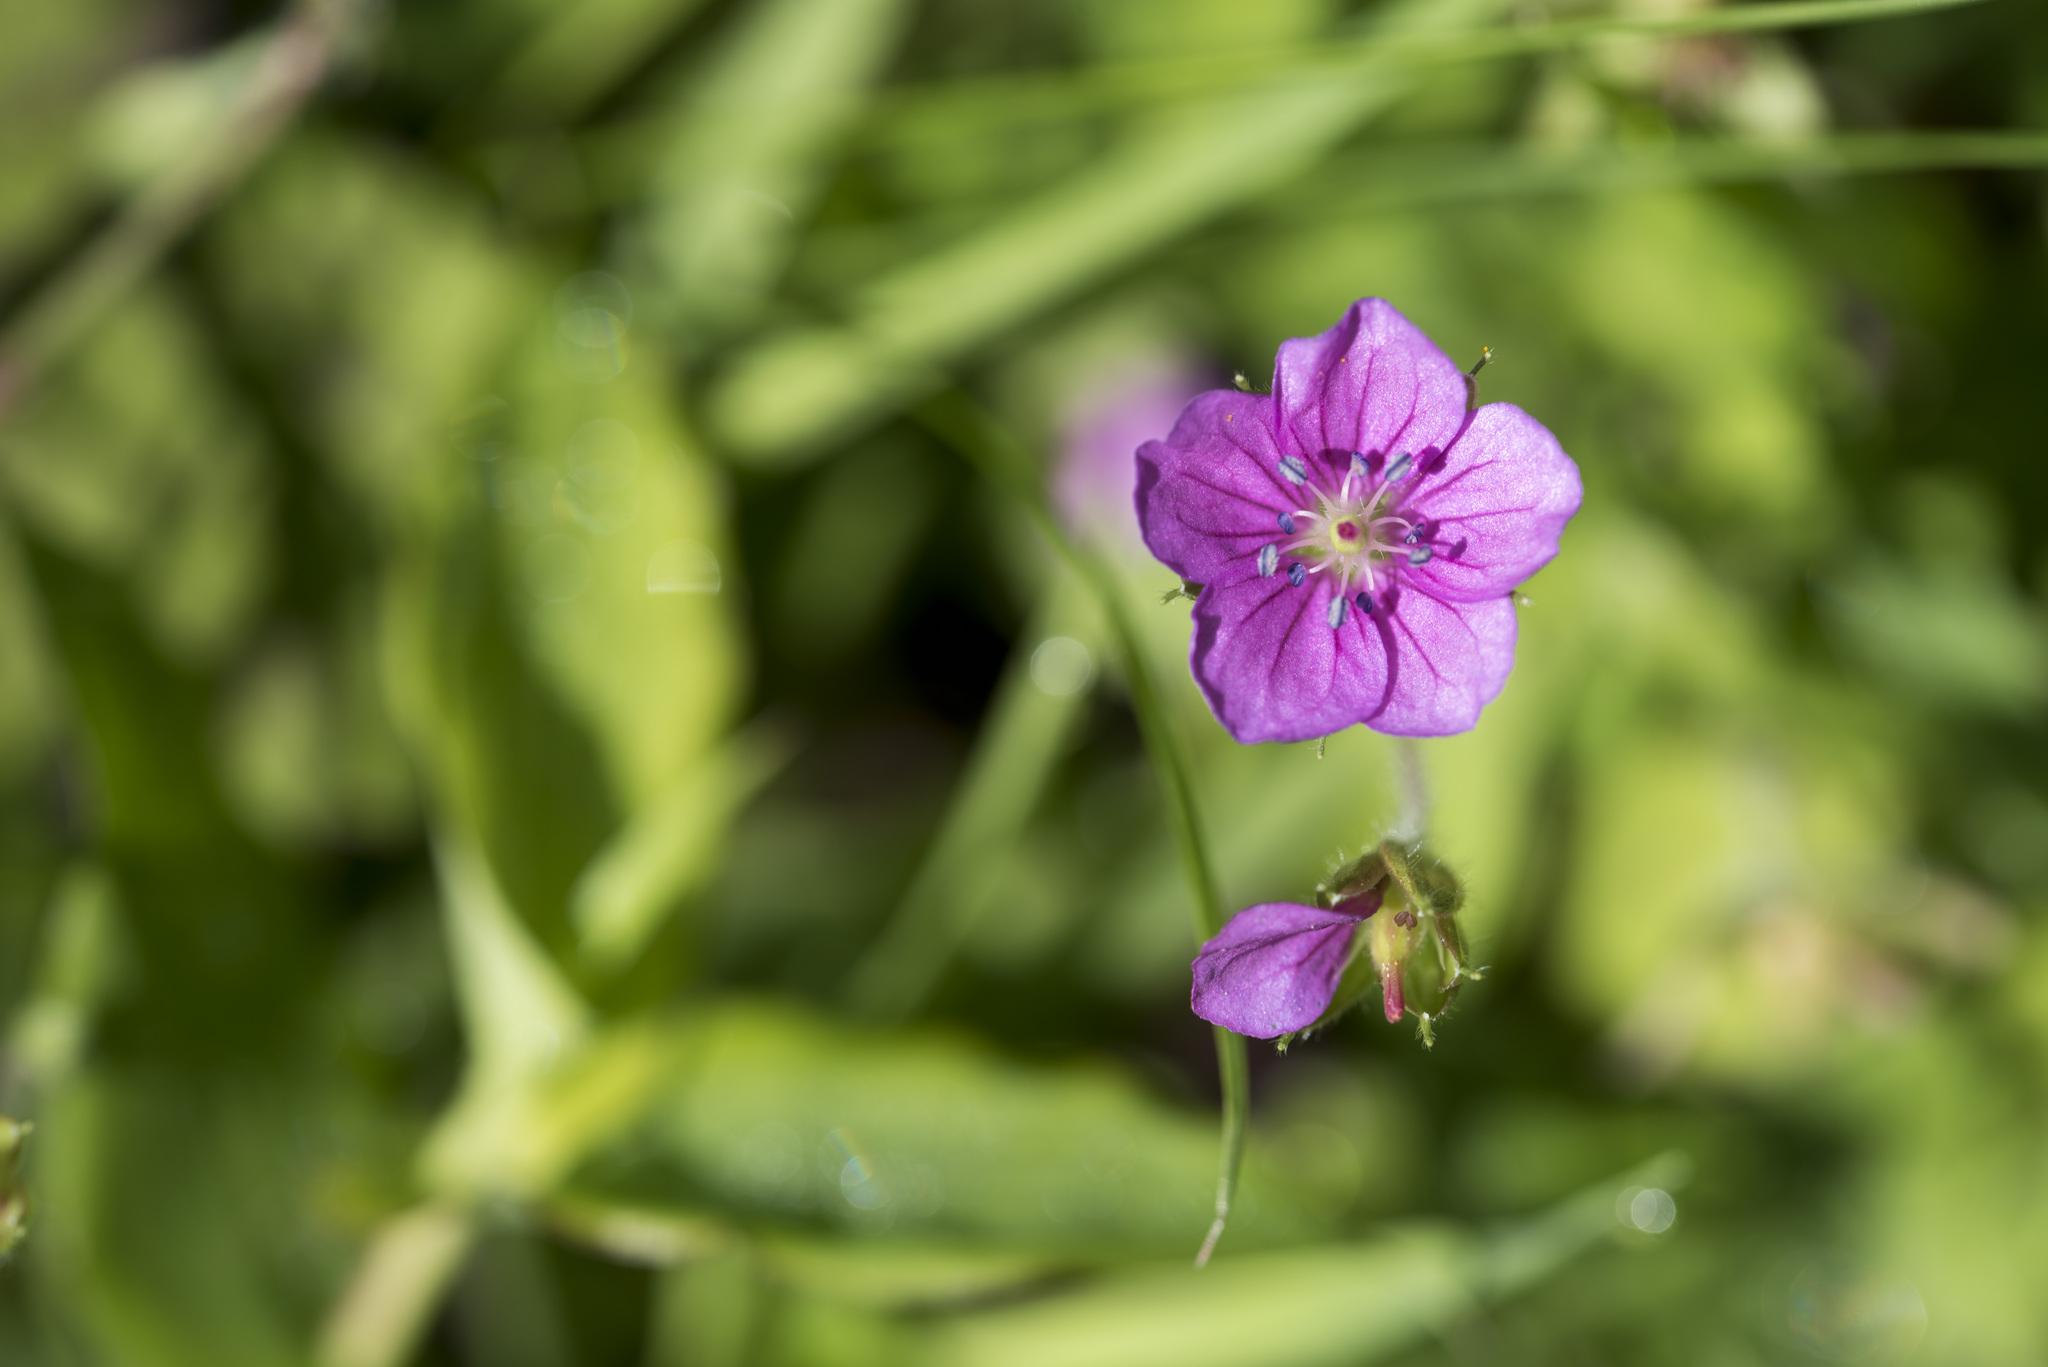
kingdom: Plantae
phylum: Tracheophyta
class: Magnoliopsida
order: Geraniales
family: Geraniaceae
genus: Geranium
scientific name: Geranium thunbergii
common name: Dewdrop crane's-bill
